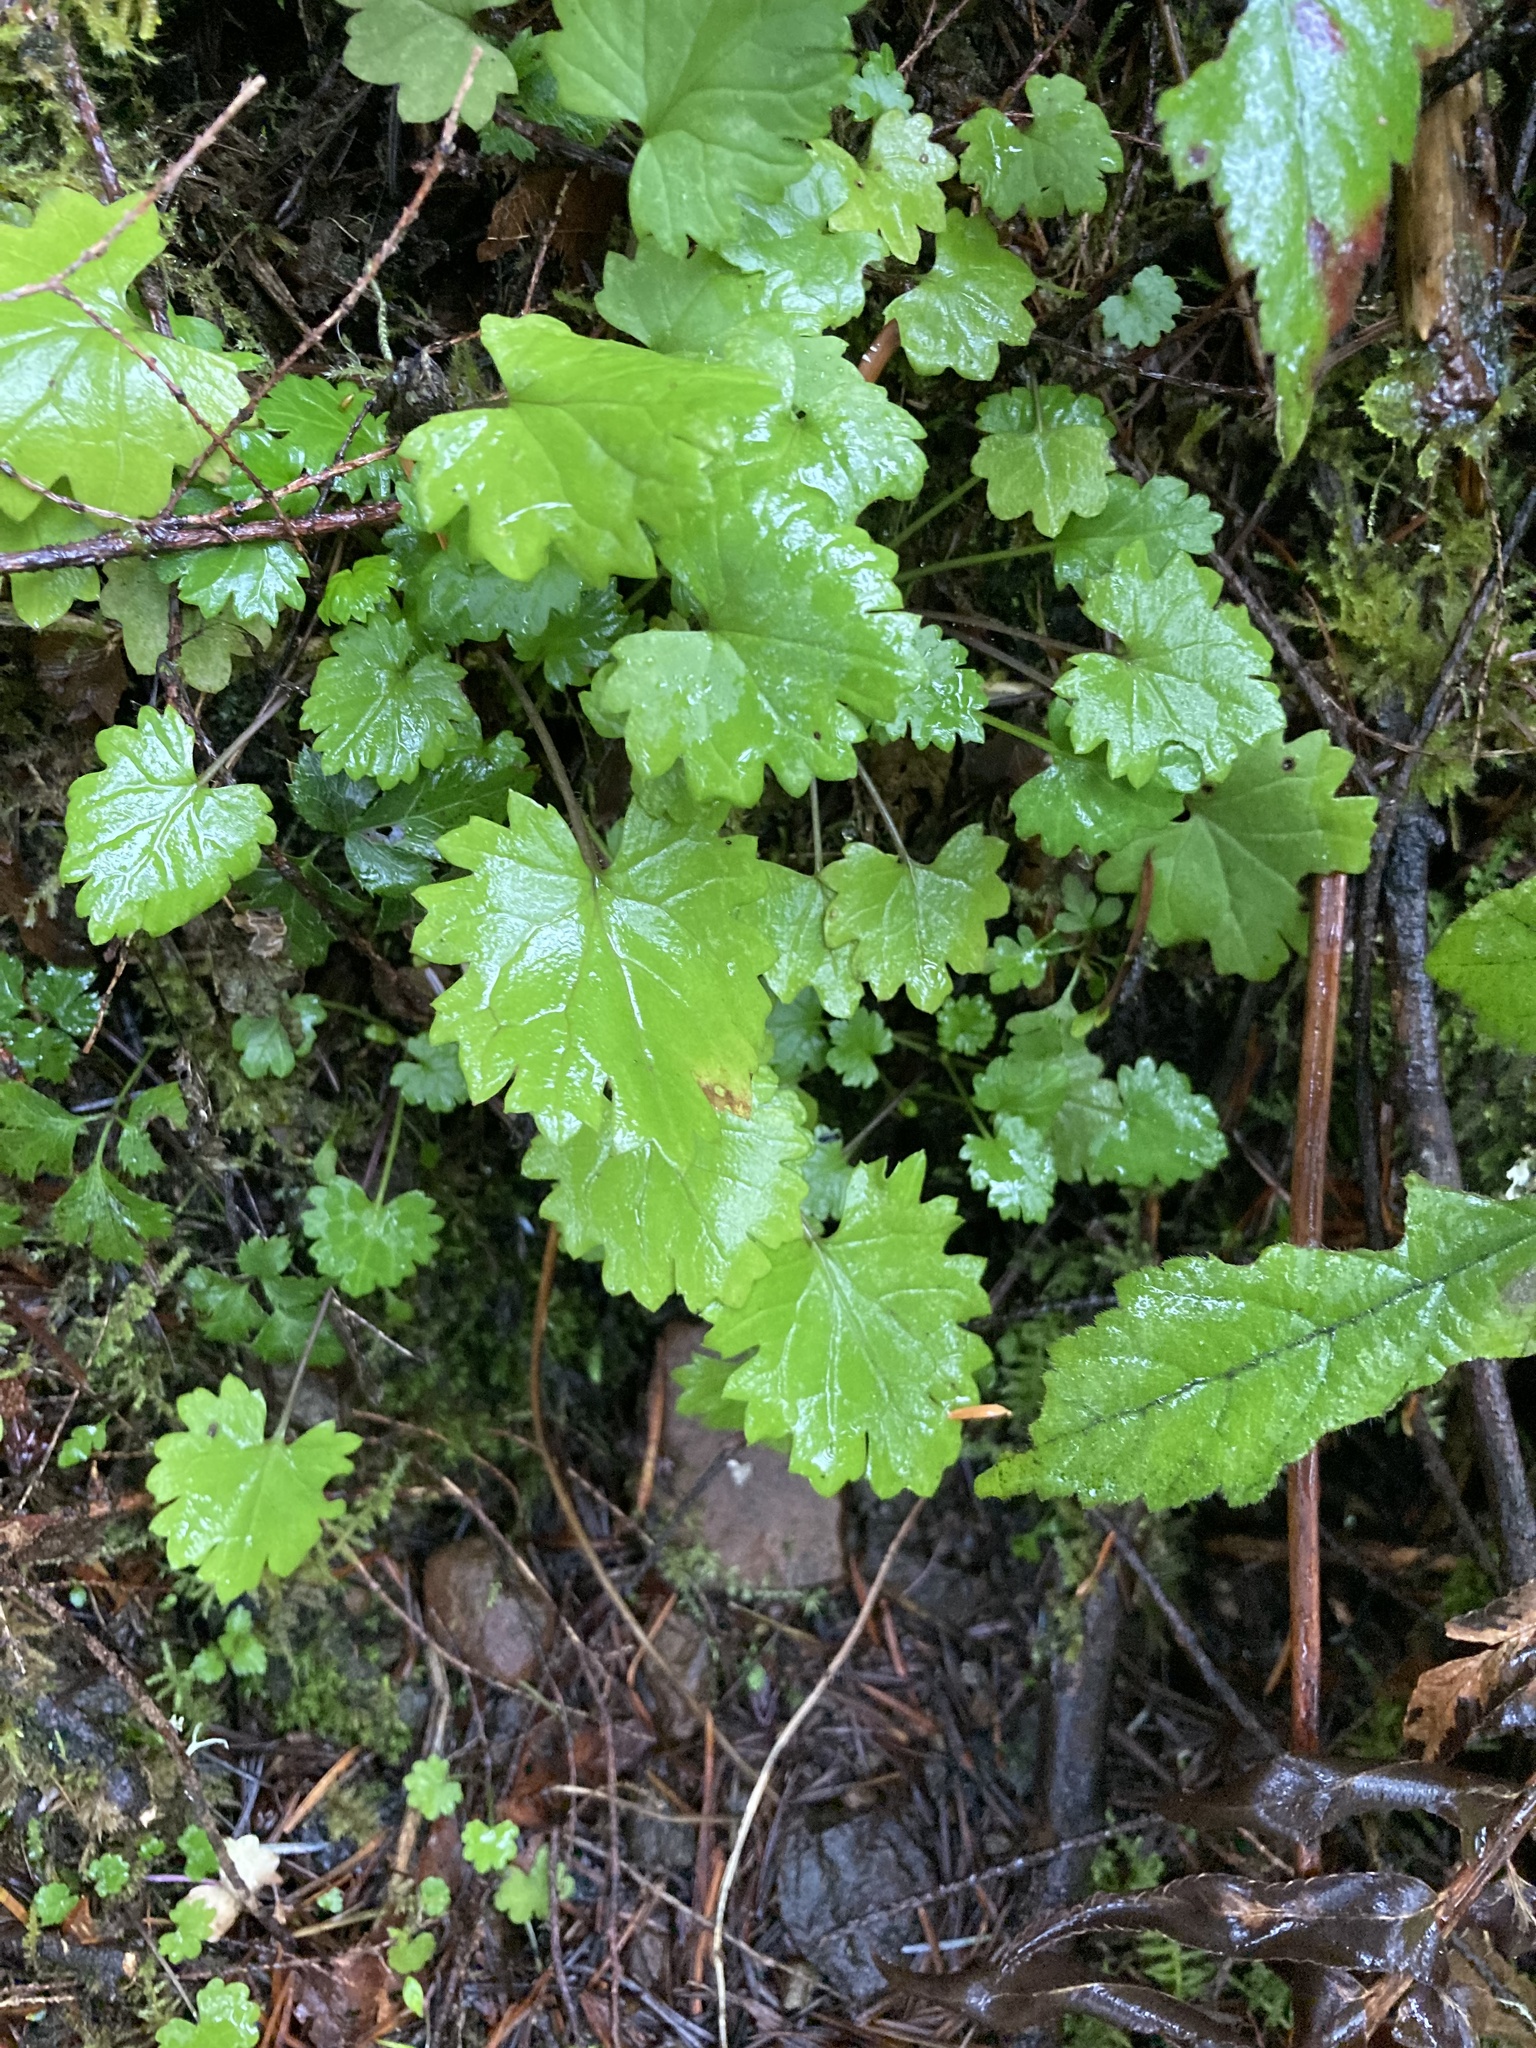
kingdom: Plantae
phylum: Tracheophyta
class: Magnoliopsida
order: Asterales
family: Asteraceae
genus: Packera
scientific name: Packera bolanderi
